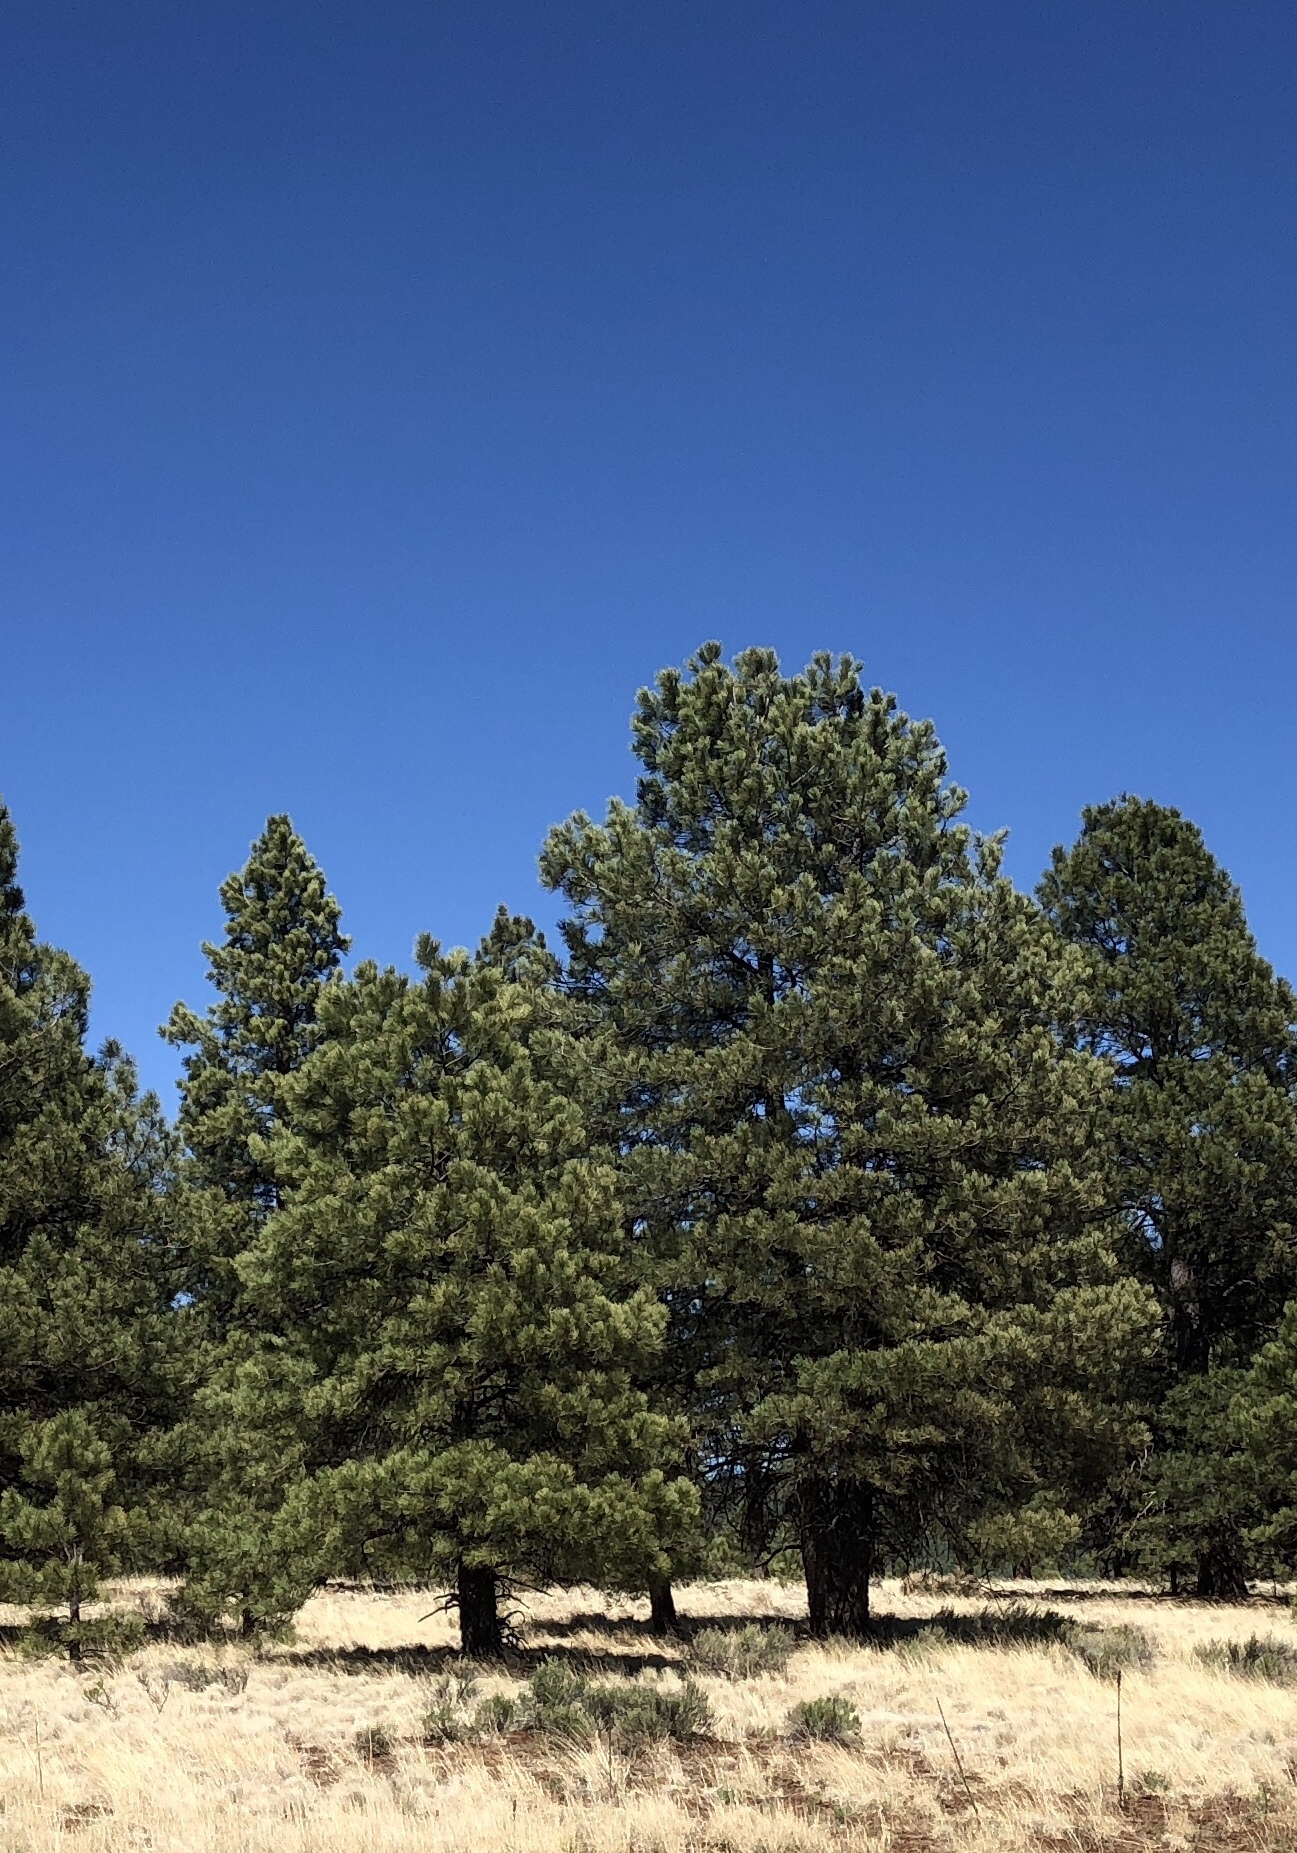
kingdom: Plantae
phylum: Tracheophyta
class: Pinopsida
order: Pinales
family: Pinaceae
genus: Pinus
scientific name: Pinus ponderosa
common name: Western yellow-pine
